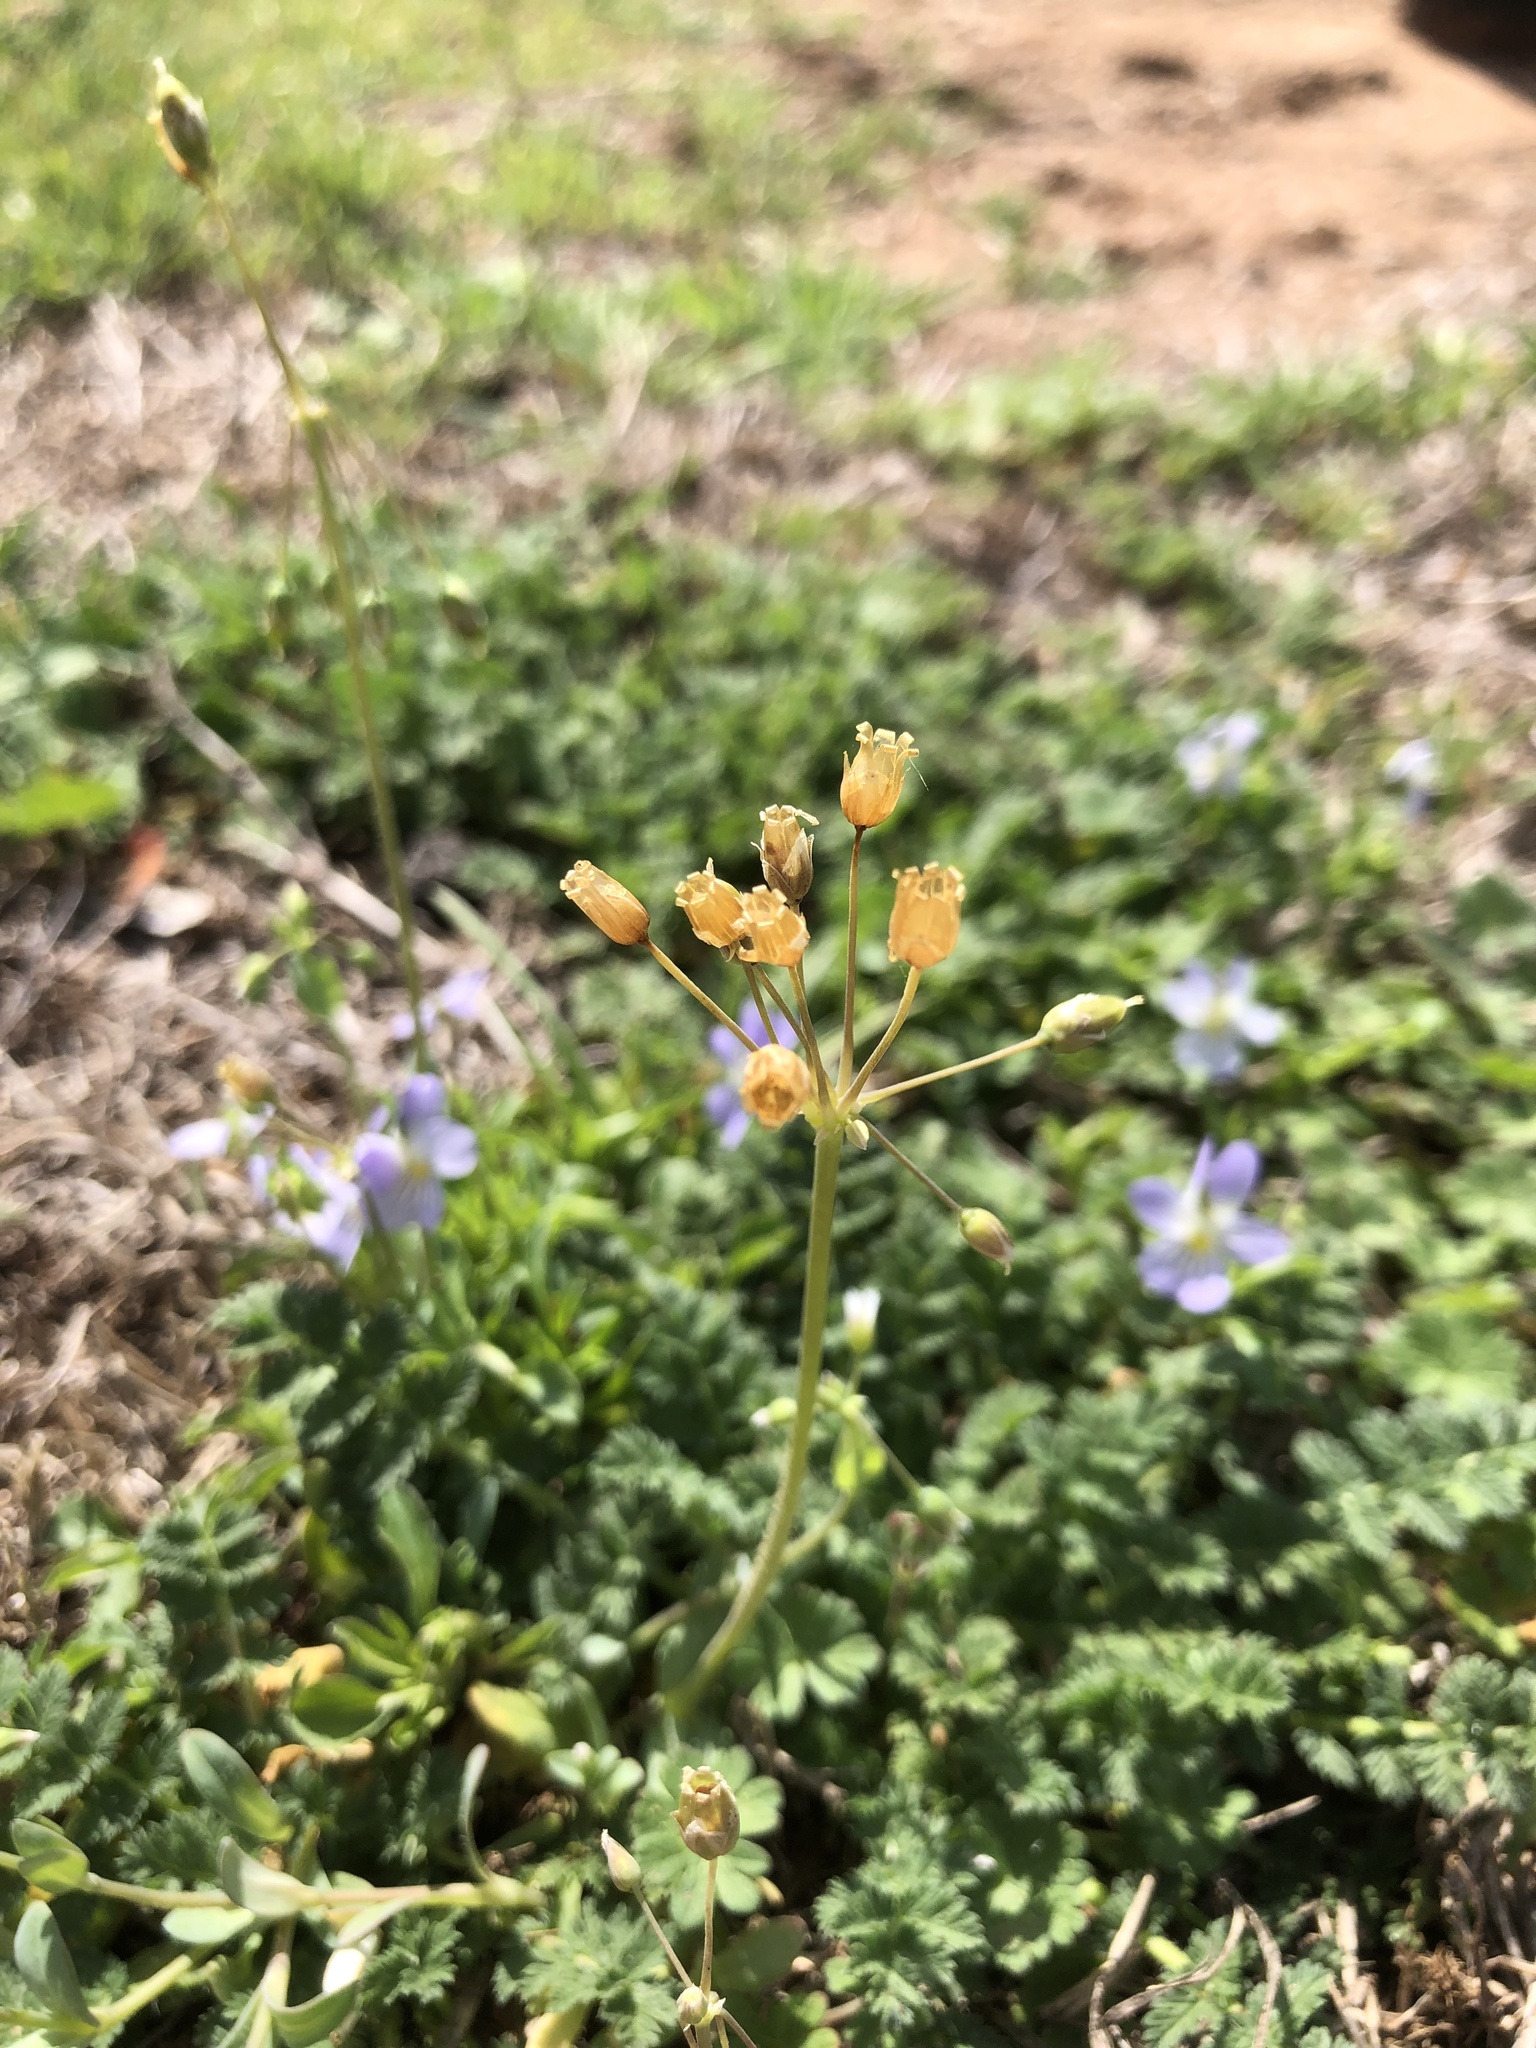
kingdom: Plantae
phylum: Tracheophyta
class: Magnoliopsida
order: Caryophyllales
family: Caryophyllaceae
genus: Holosteum
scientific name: Holosteum umbellatum
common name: Jagged chickweed
